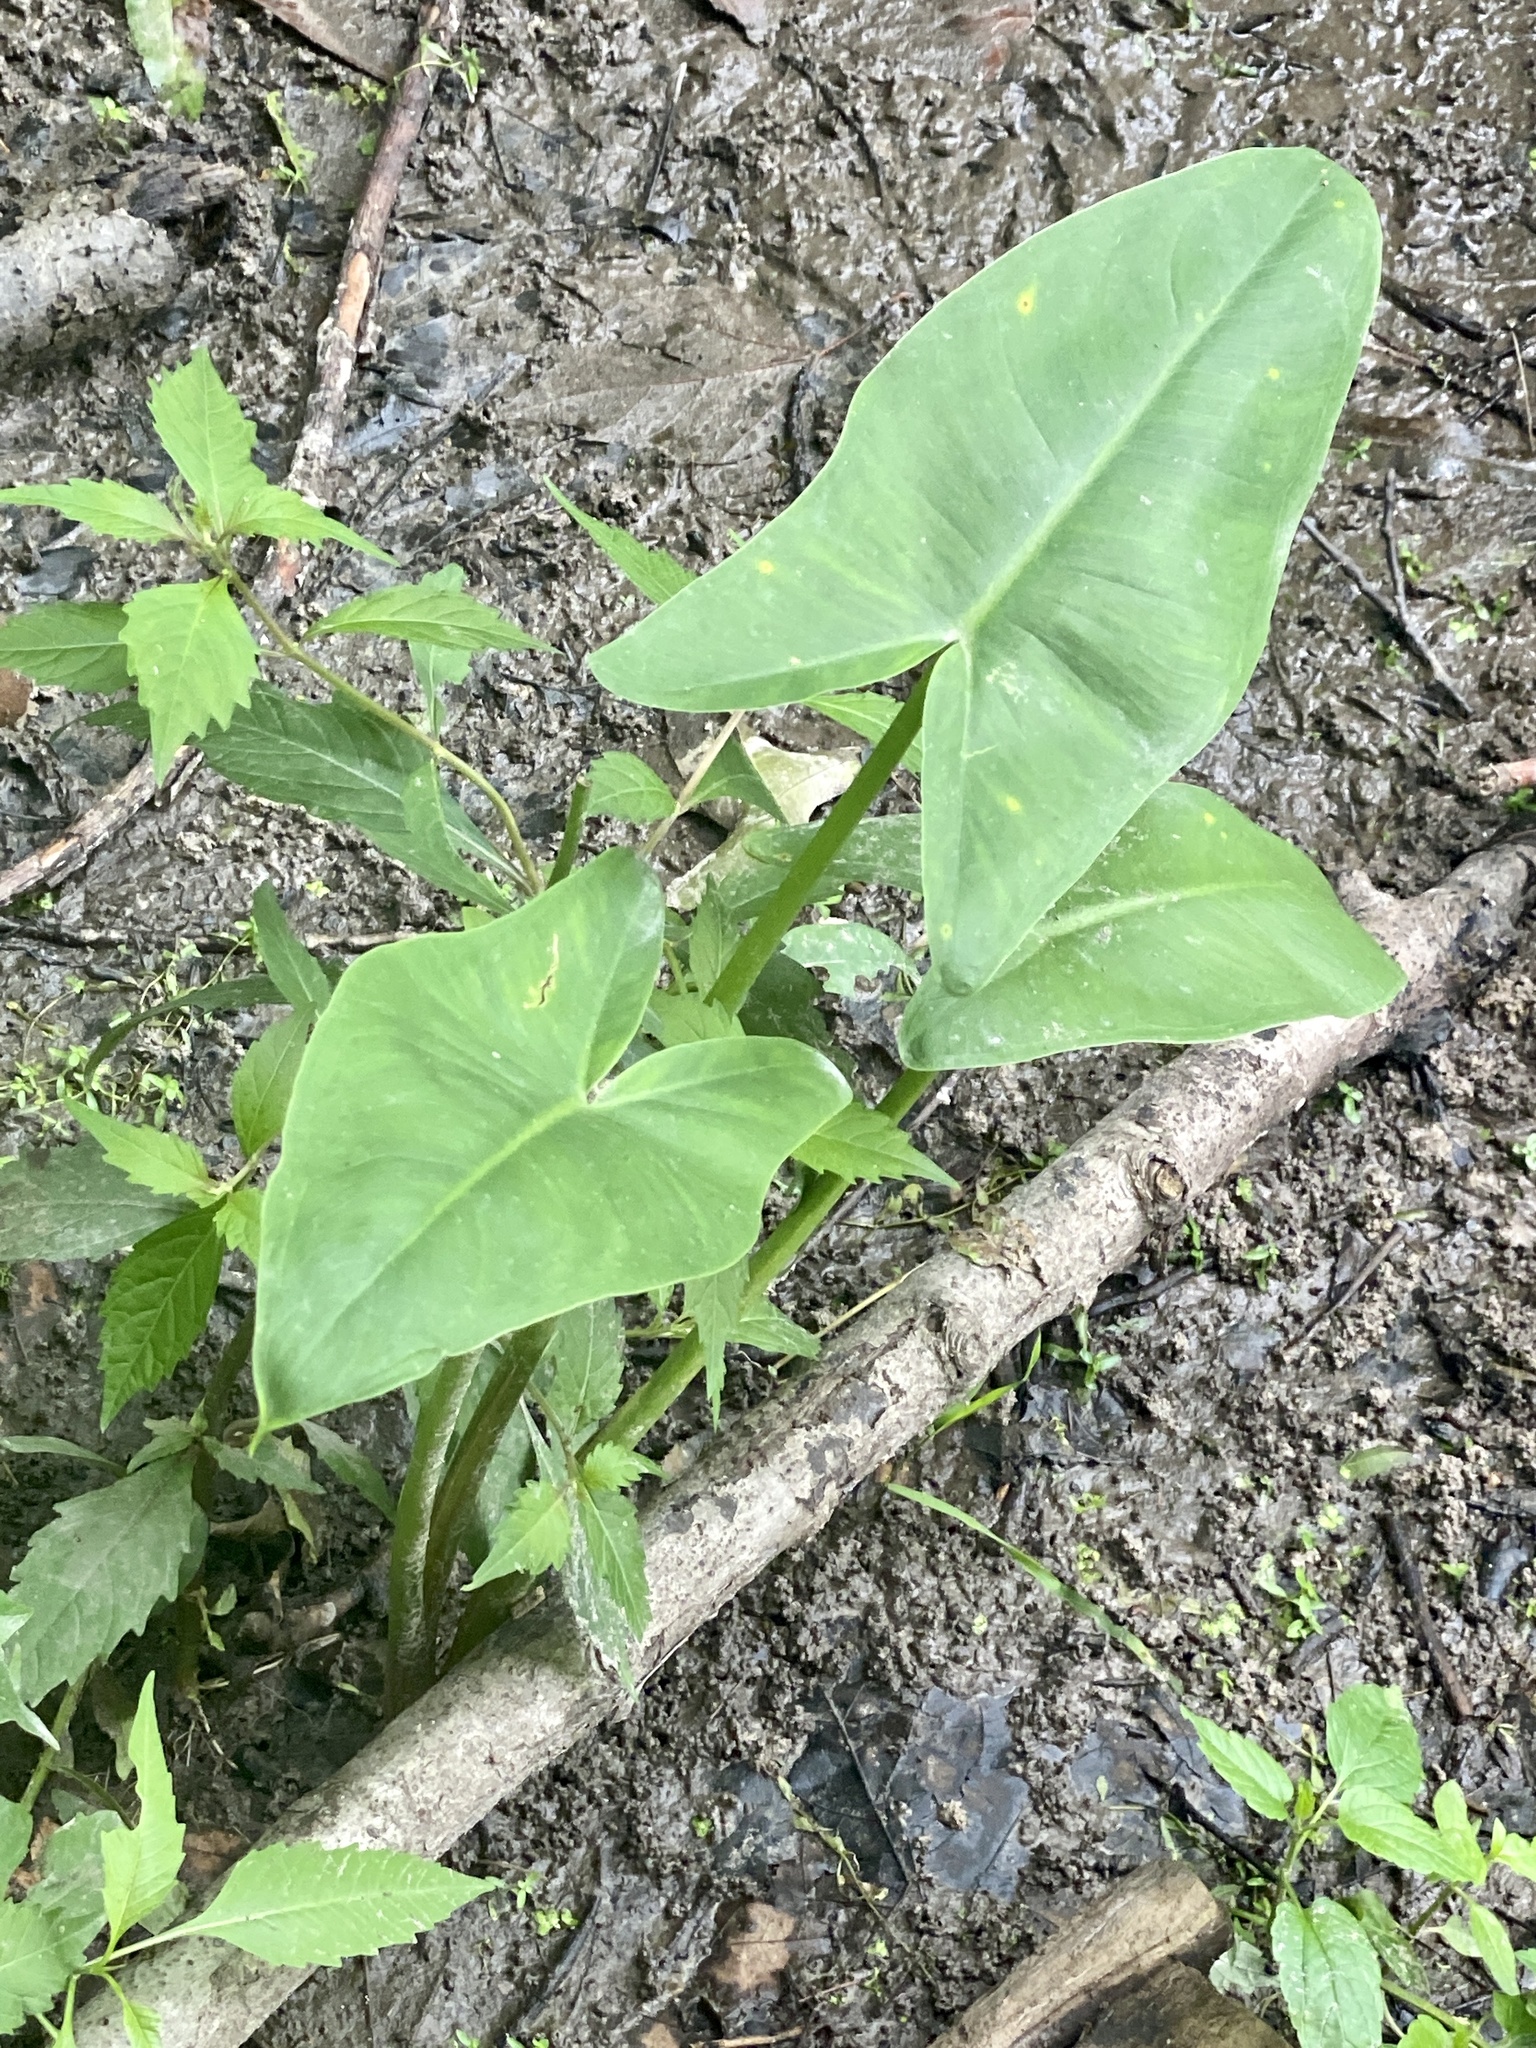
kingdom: Plantae
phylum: Tracheophyta
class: Liliopsida
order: Alismatales
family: Araceae
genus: Peltandra
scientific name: Peltandra virginica
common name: Arrow arum
